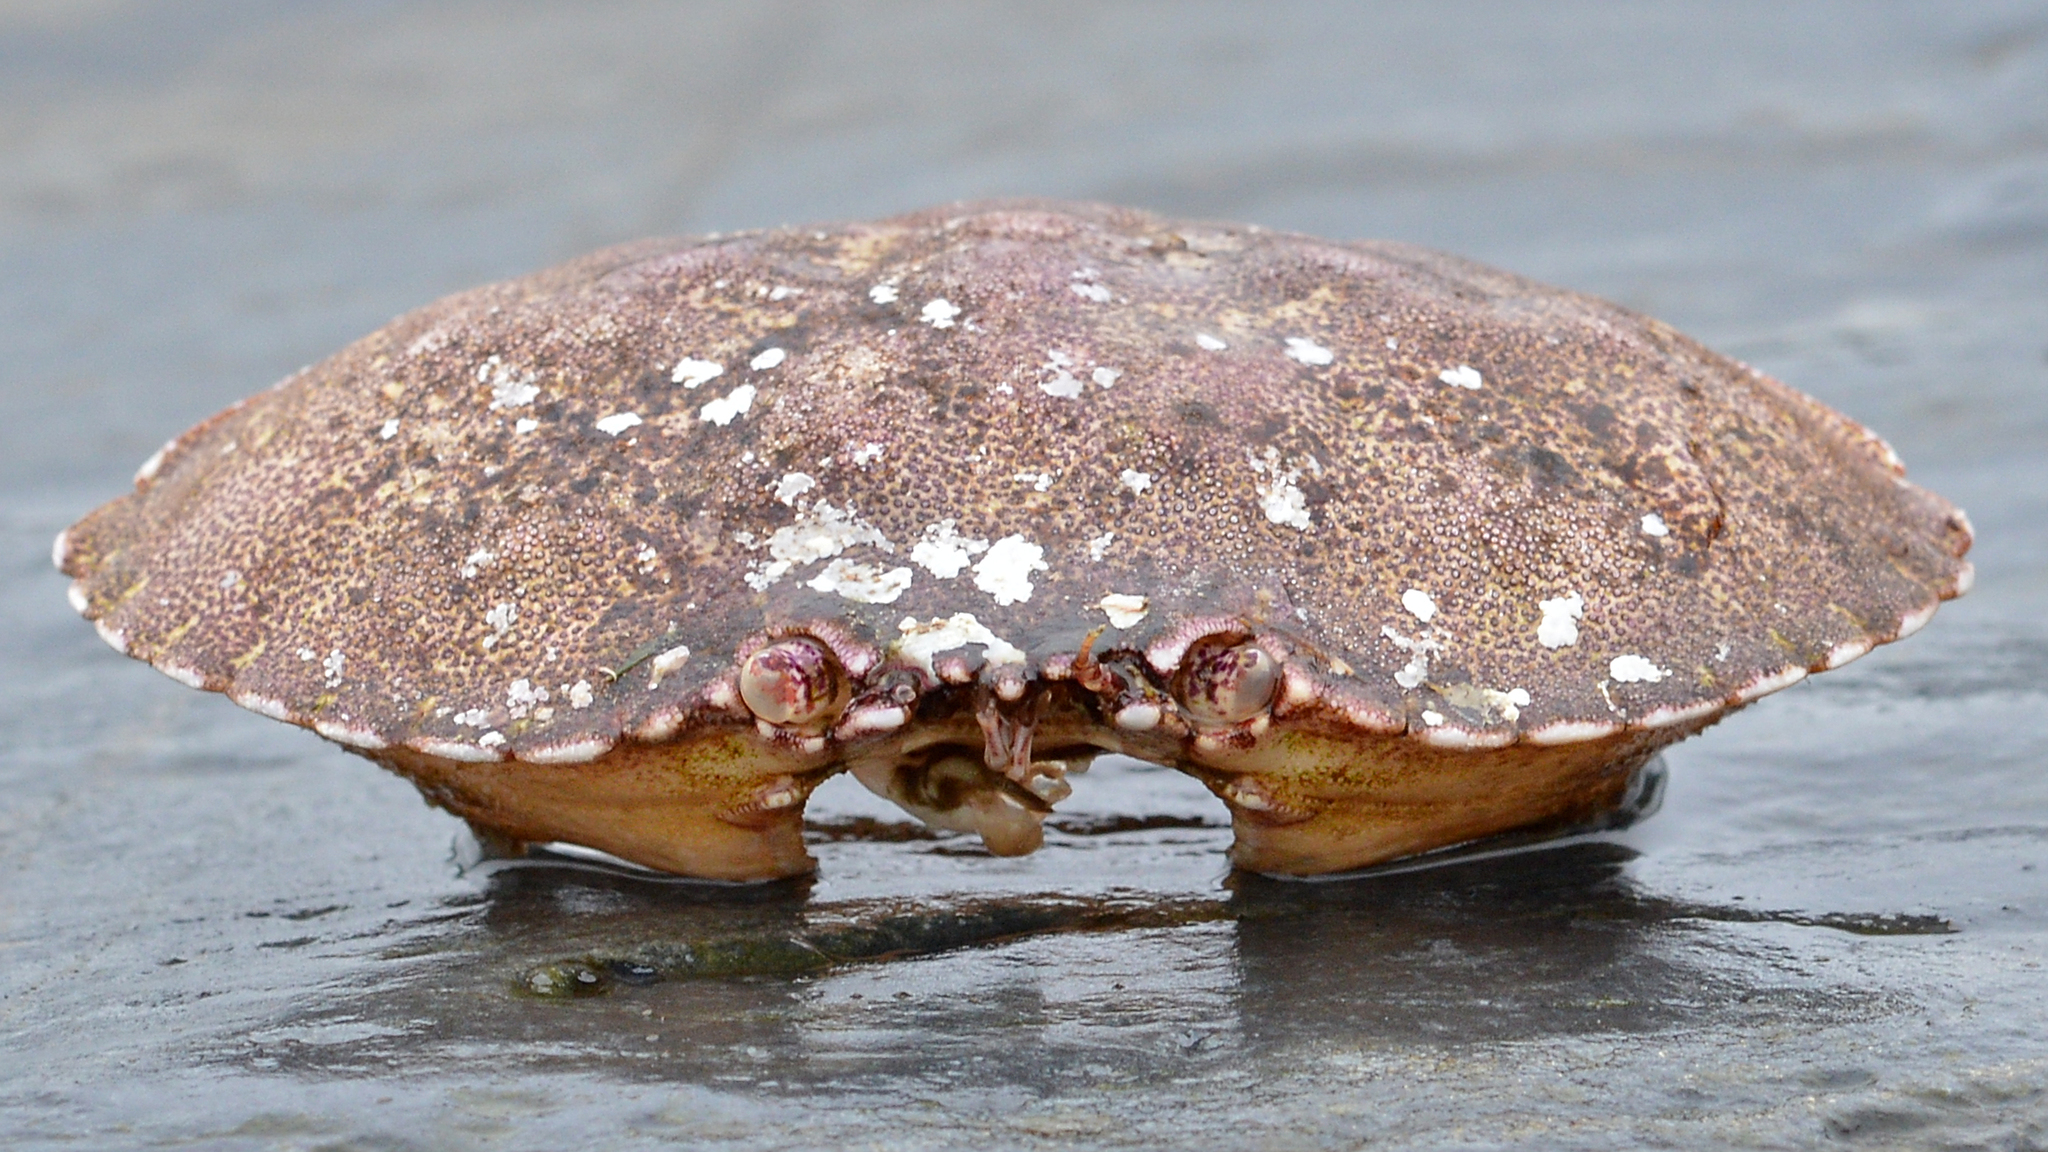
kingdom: Animalia
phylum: Arthropoda
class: Malacostraca
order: Decapoda
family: Cancridae
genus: Cancer
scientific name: Cancer irroratus
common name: Atlantic rock crab
